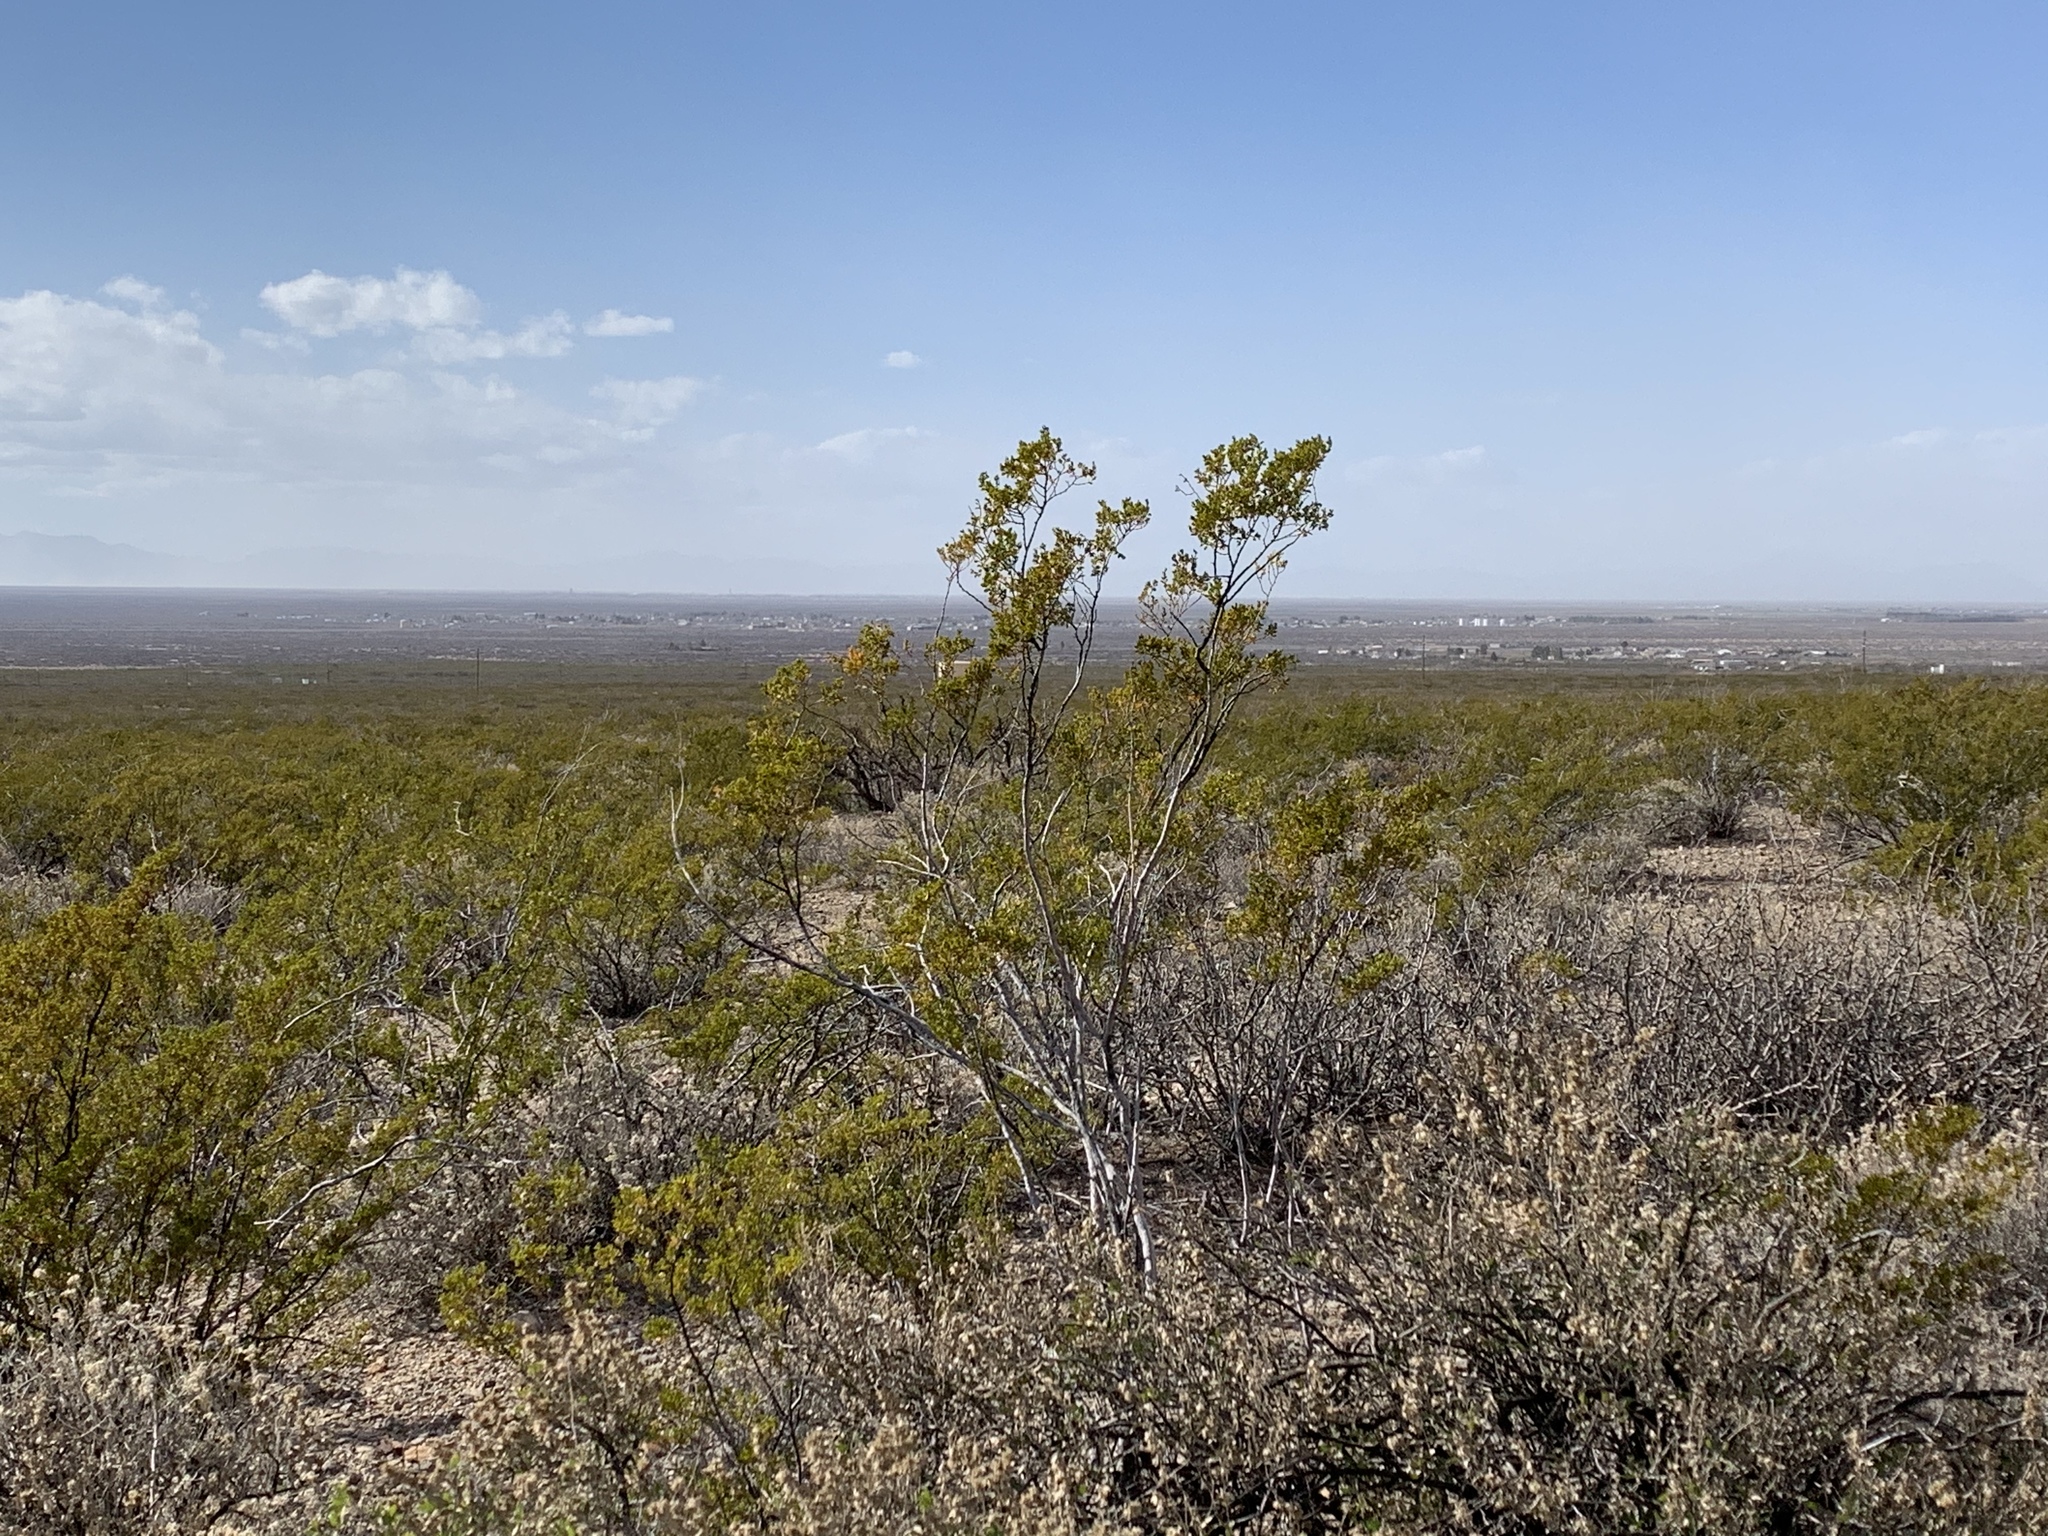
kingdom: Plantae
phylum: Tracheophyta
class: Magnoliopsida
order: Zygophyllales
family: Zygophyllaceae
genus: Larrea
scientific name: Larrea tridentata
